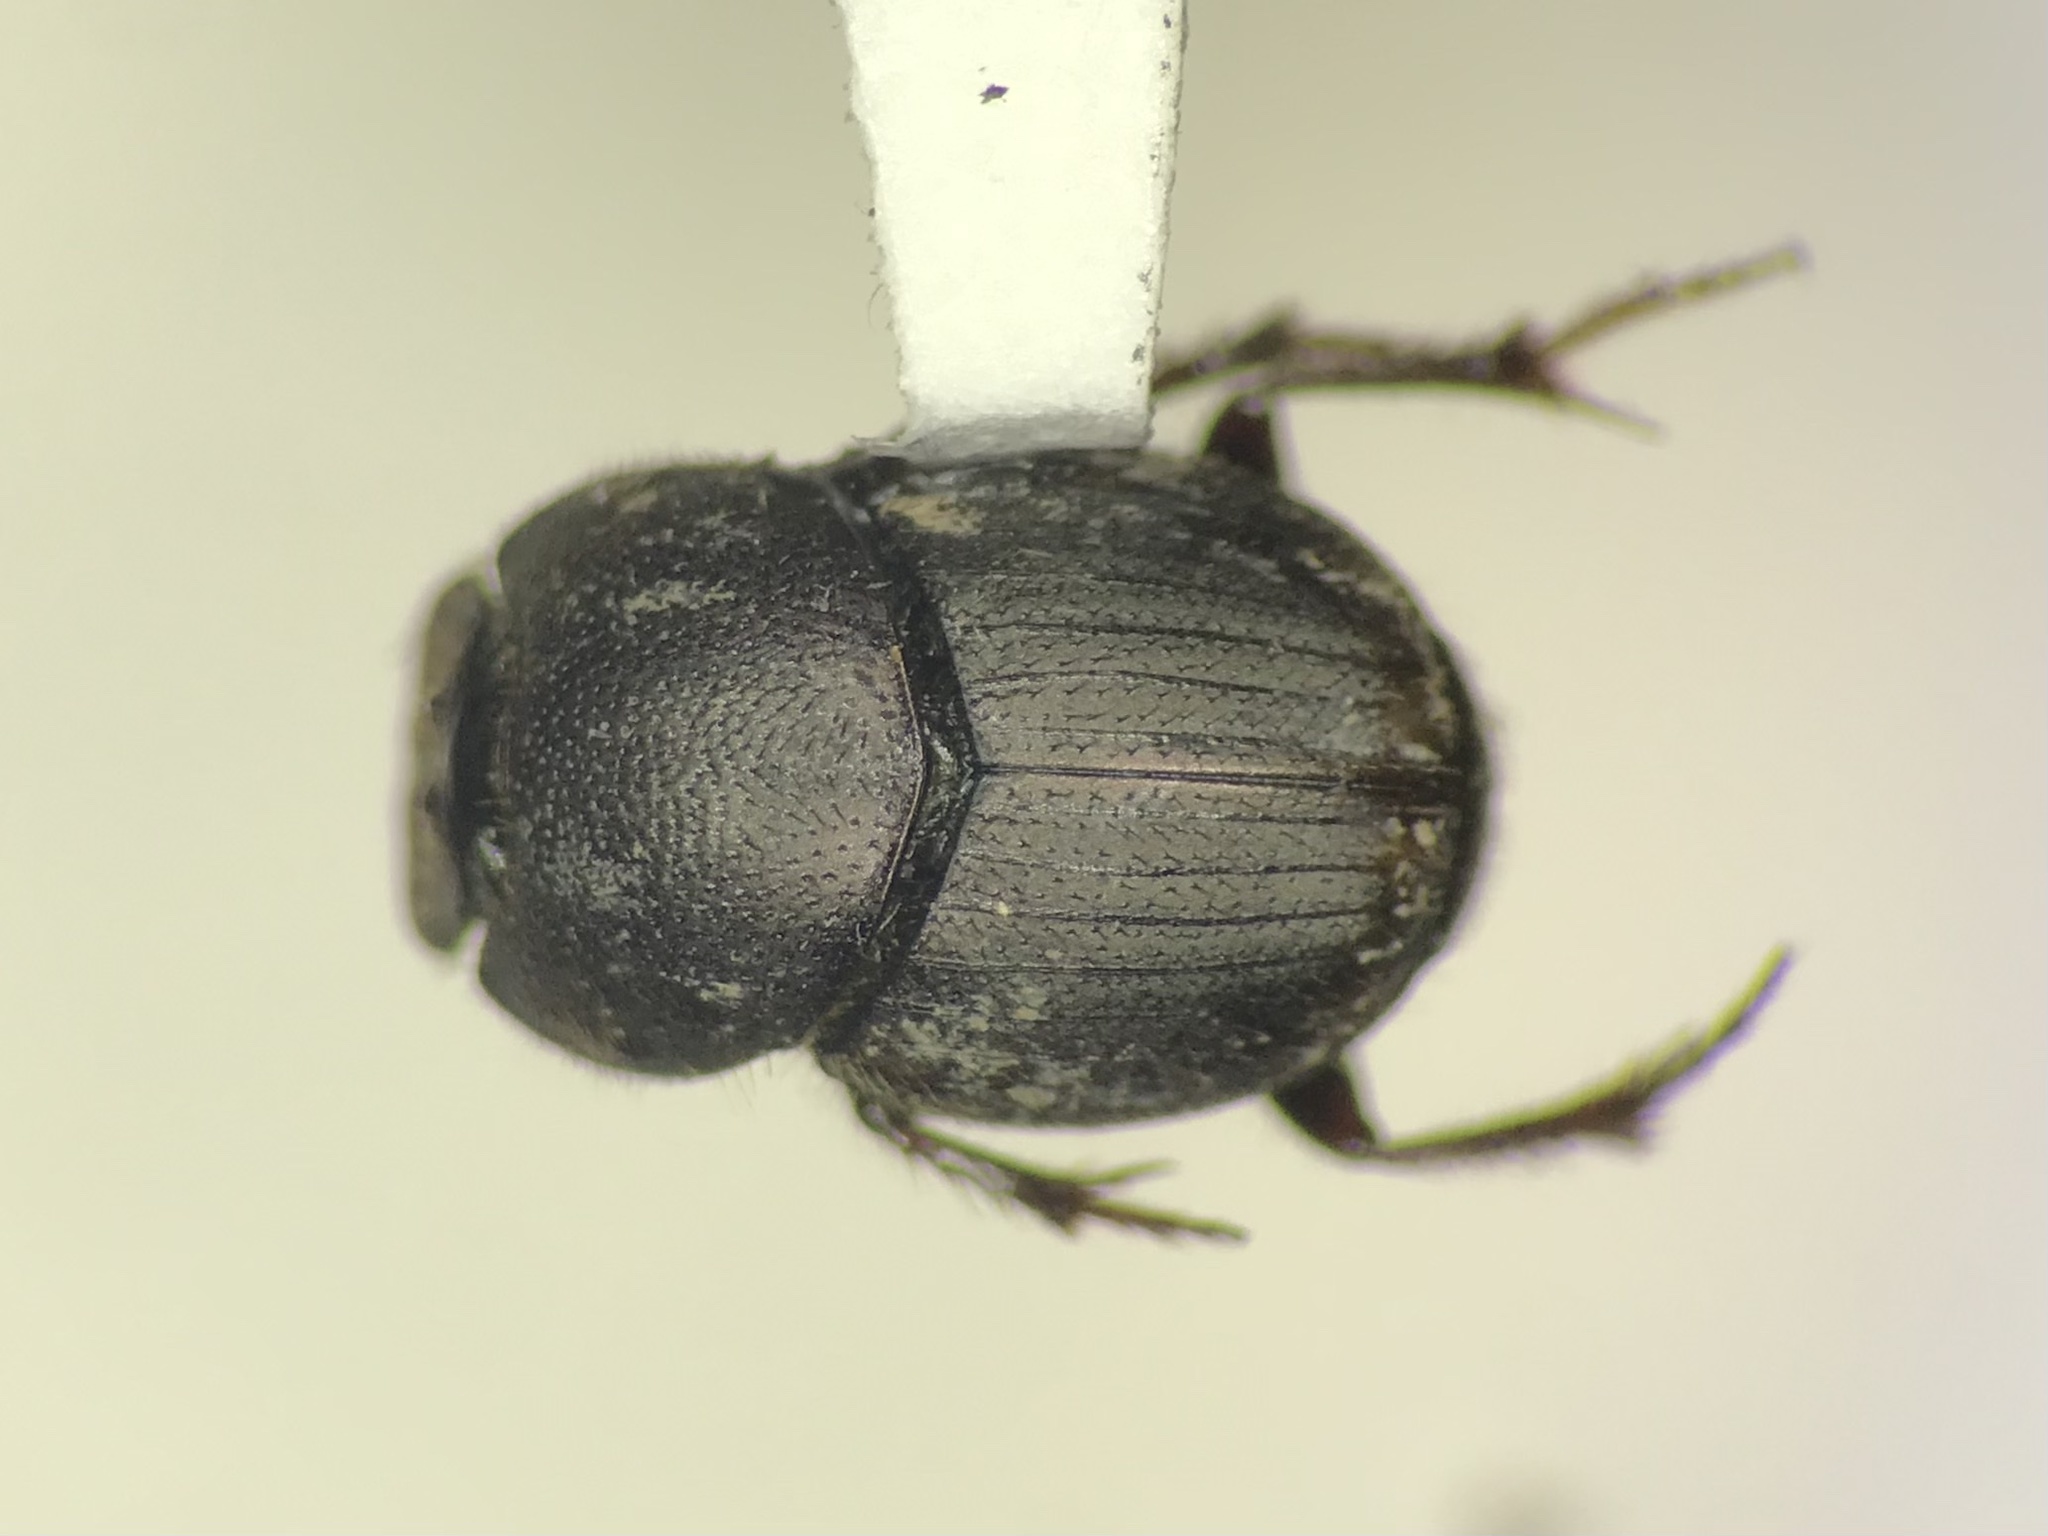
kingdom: Animalia
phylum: Arthropoda
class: Insecta
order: Coleoptera
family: Scarabaeidae
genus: Onthophagus
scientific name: Onthophagus tuberculifrons
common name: Dung beetle
